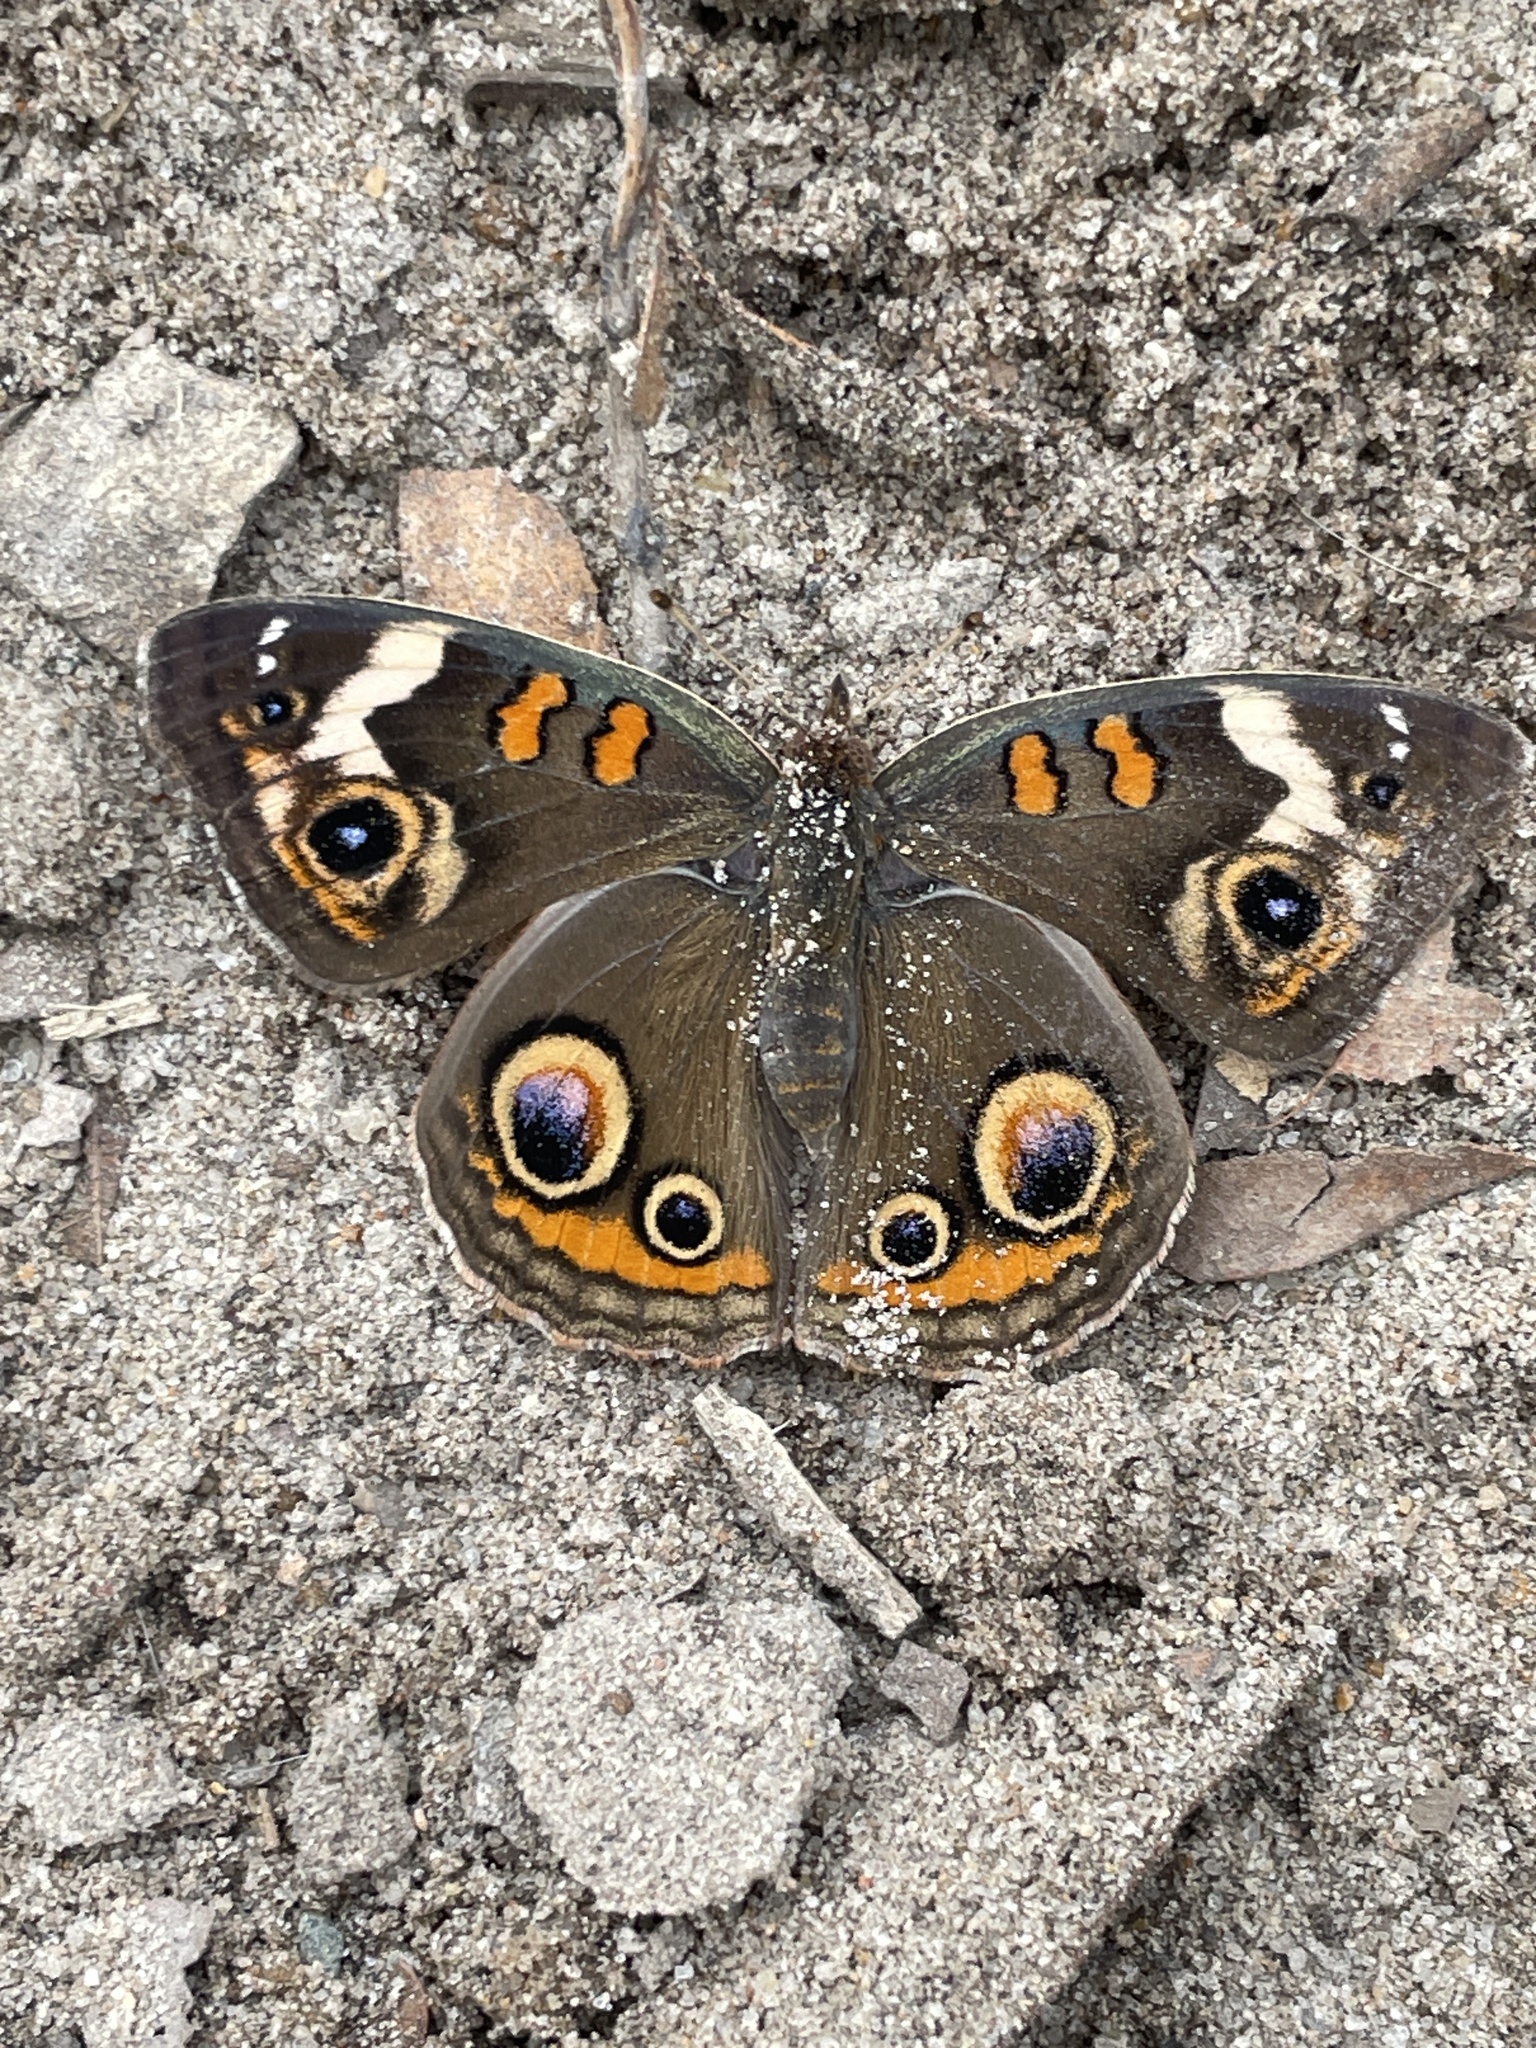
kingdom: Animalia
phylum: Arthropoda
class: Insecta
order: Lepidoptera
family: Nymphalidae
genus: Junonia
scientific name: Junonia coenia
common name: Common buckeye
